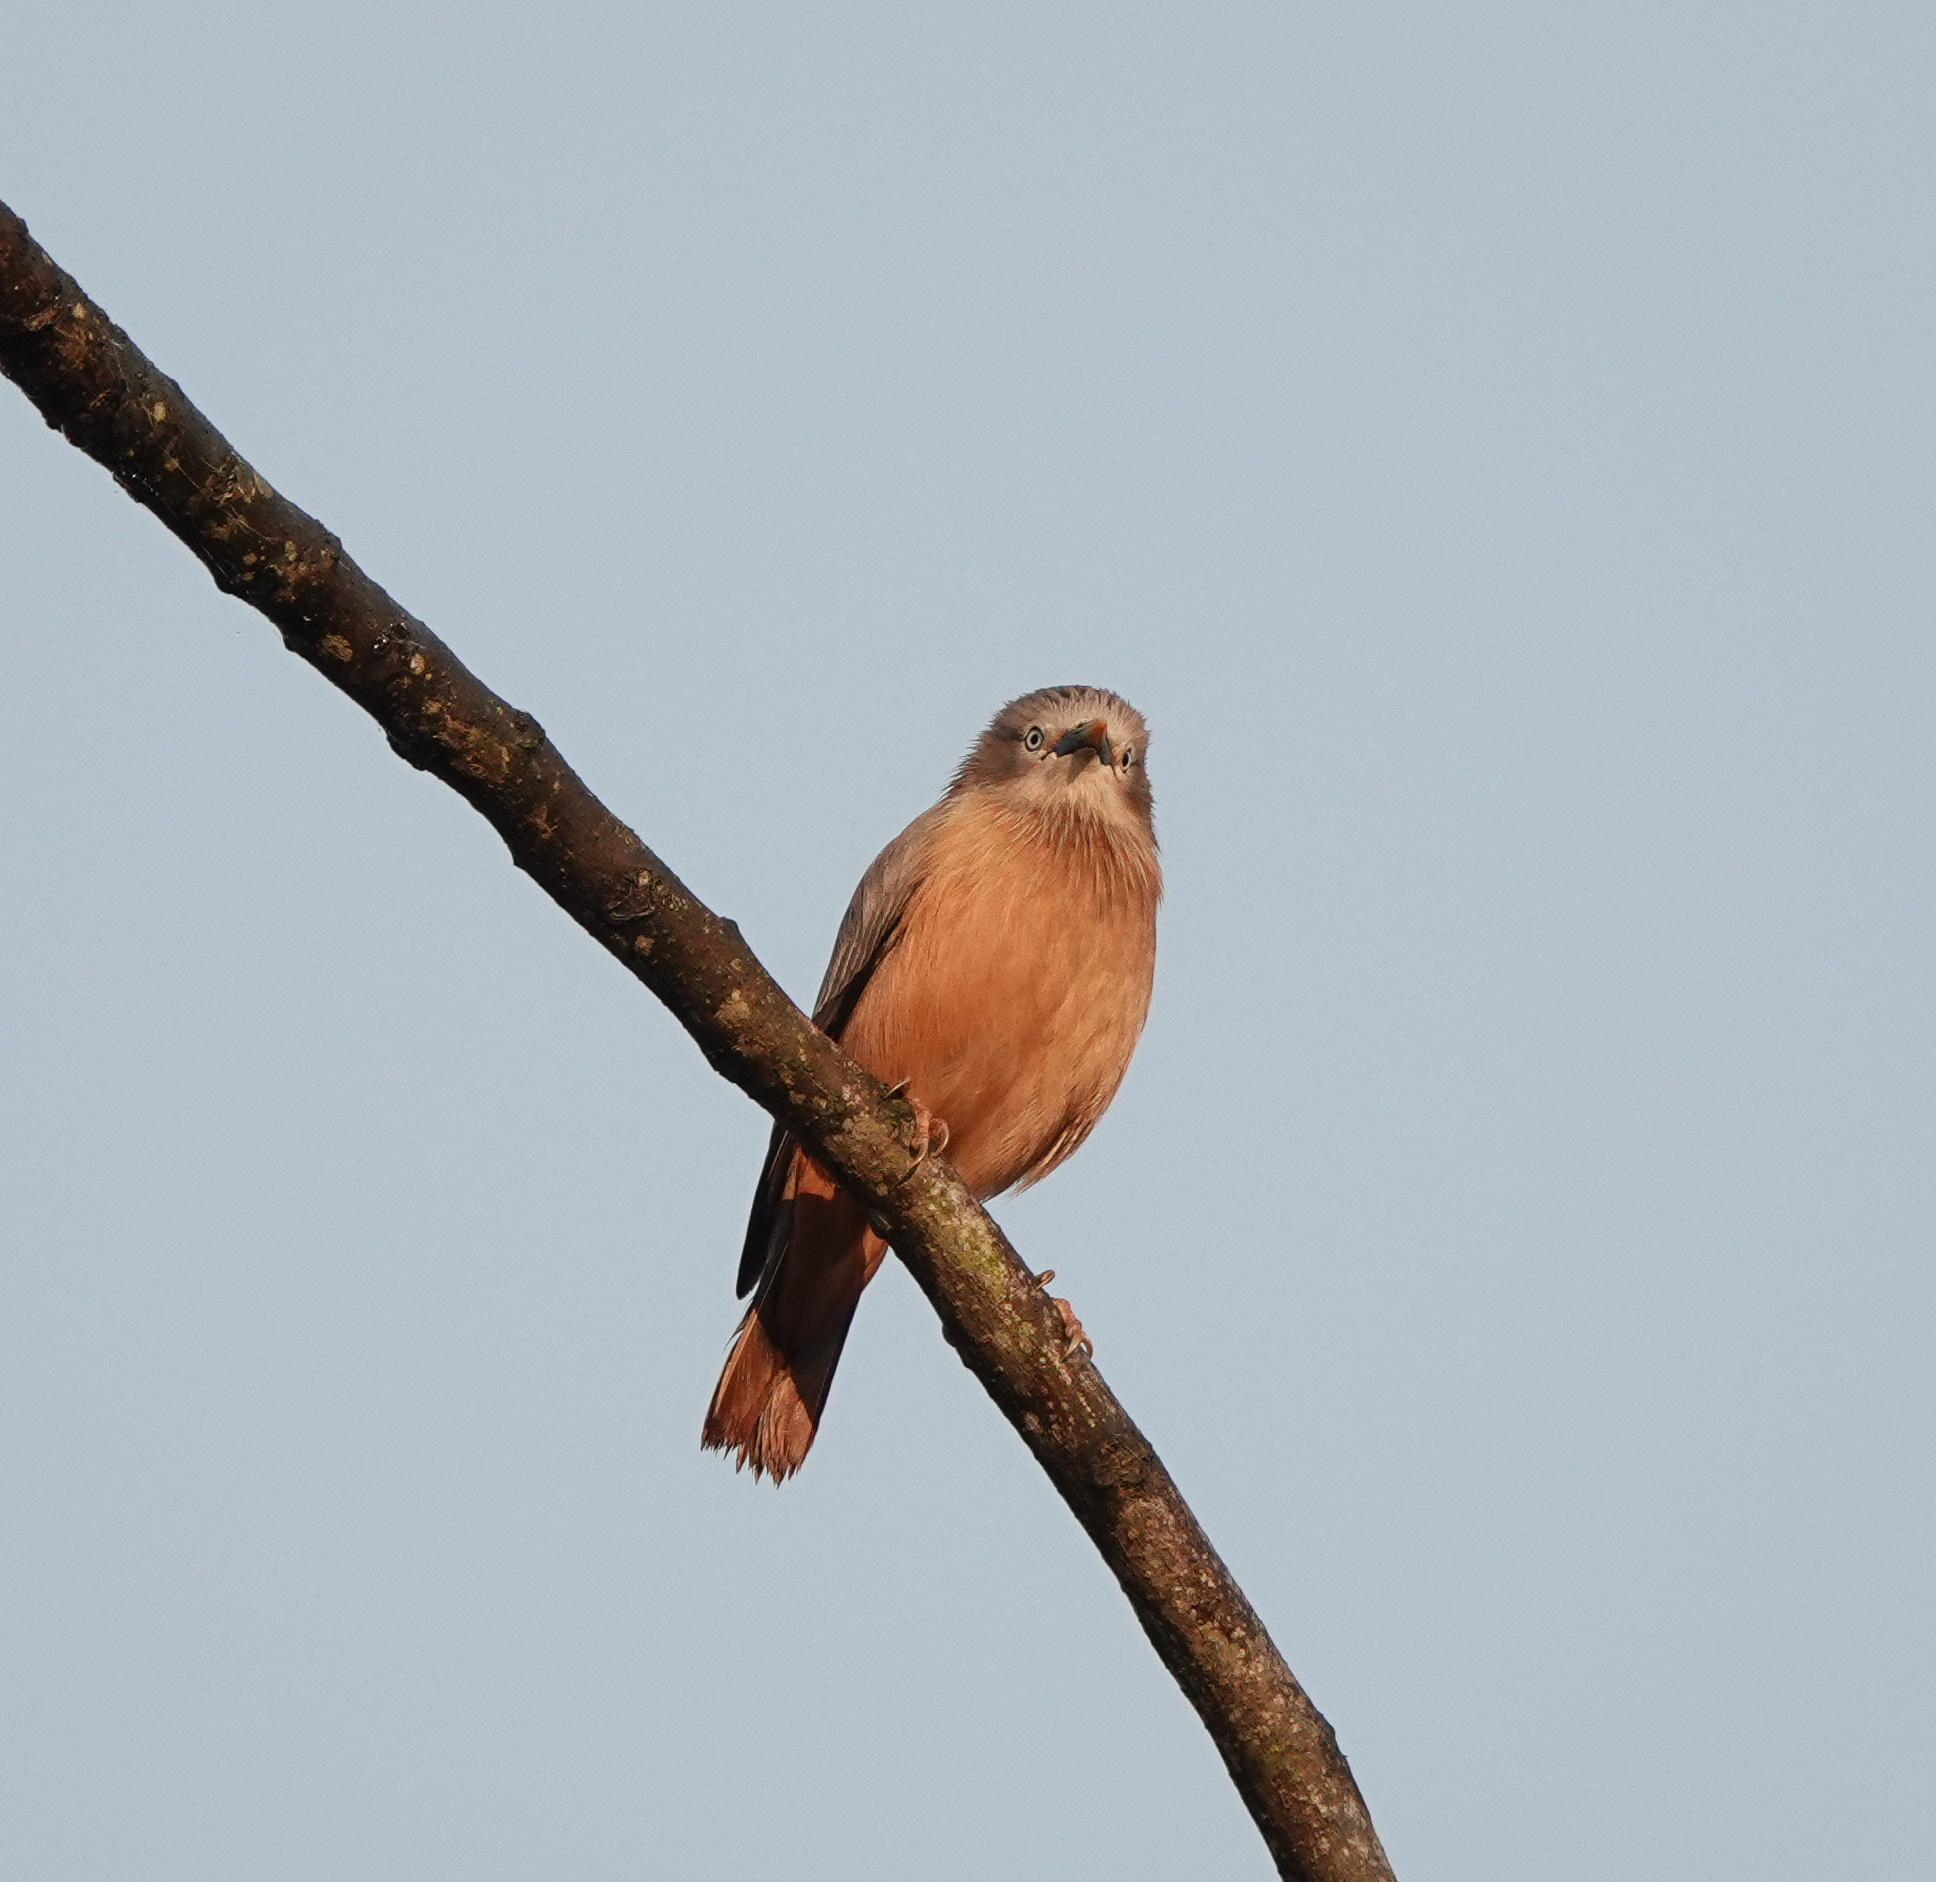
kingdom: Animalia
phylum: Chordata
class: Aves
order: Passeriformes
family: Sturnidae
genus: Sturnia
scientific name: Sturnia malabarica
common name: Chestnut-tailed starling
